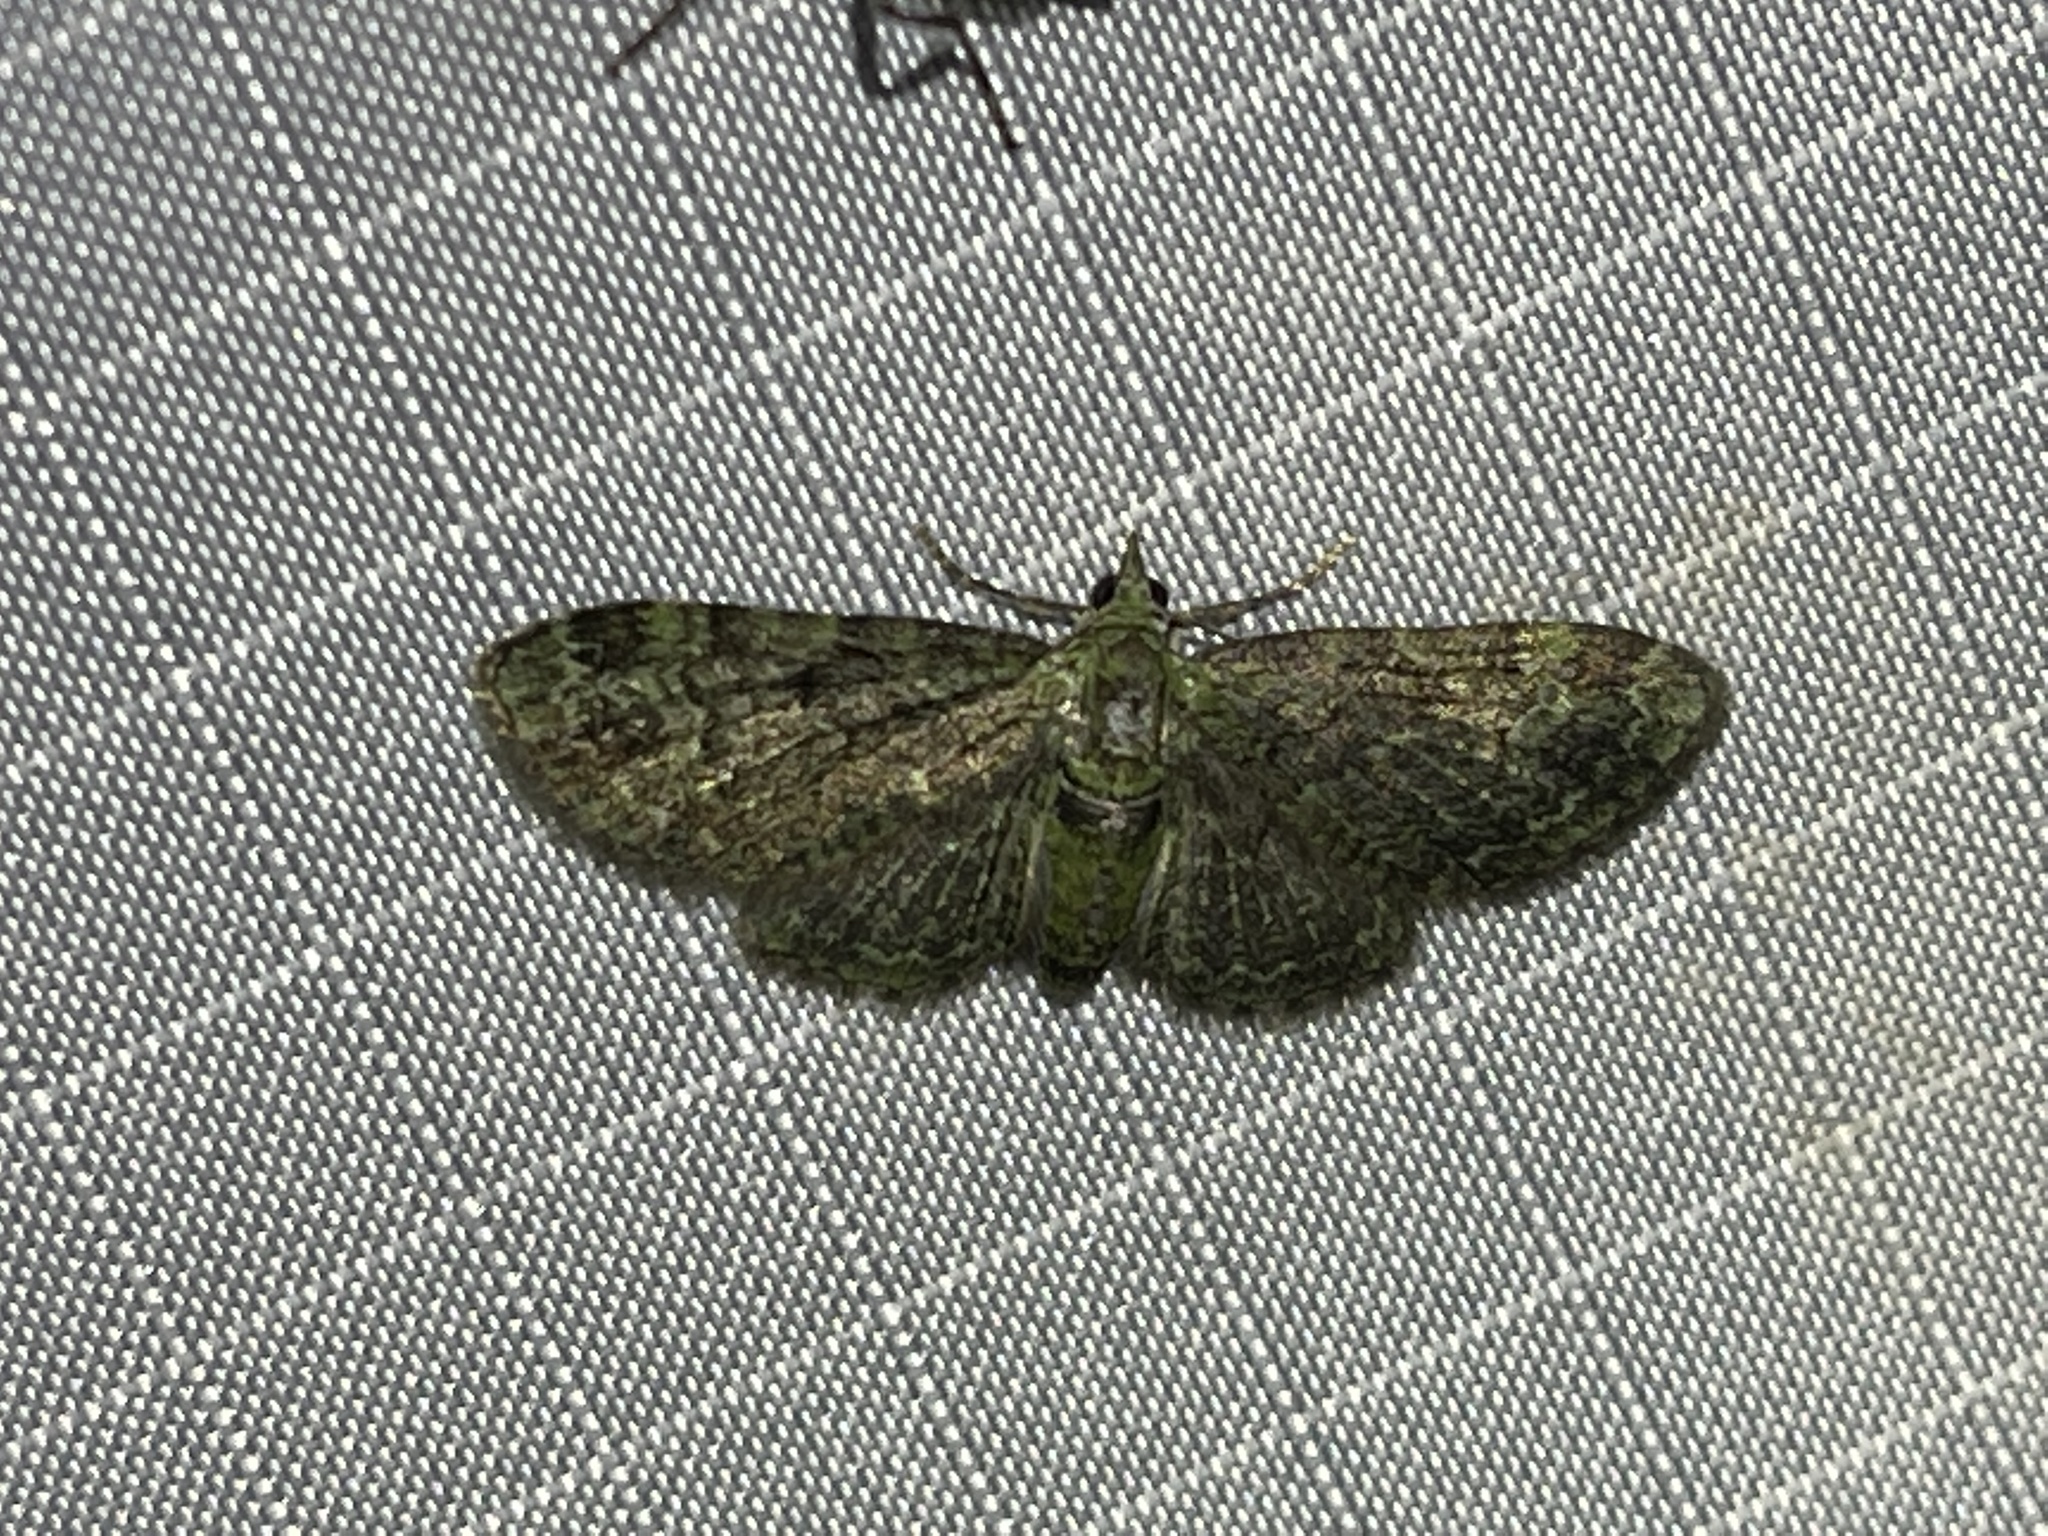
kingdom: Animalia
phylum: Arthropoda
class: Insecta
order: Lepidoptera
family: Geometridae
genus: Pasiphila
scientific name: Pasiphila rectangulata
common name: Green pug
